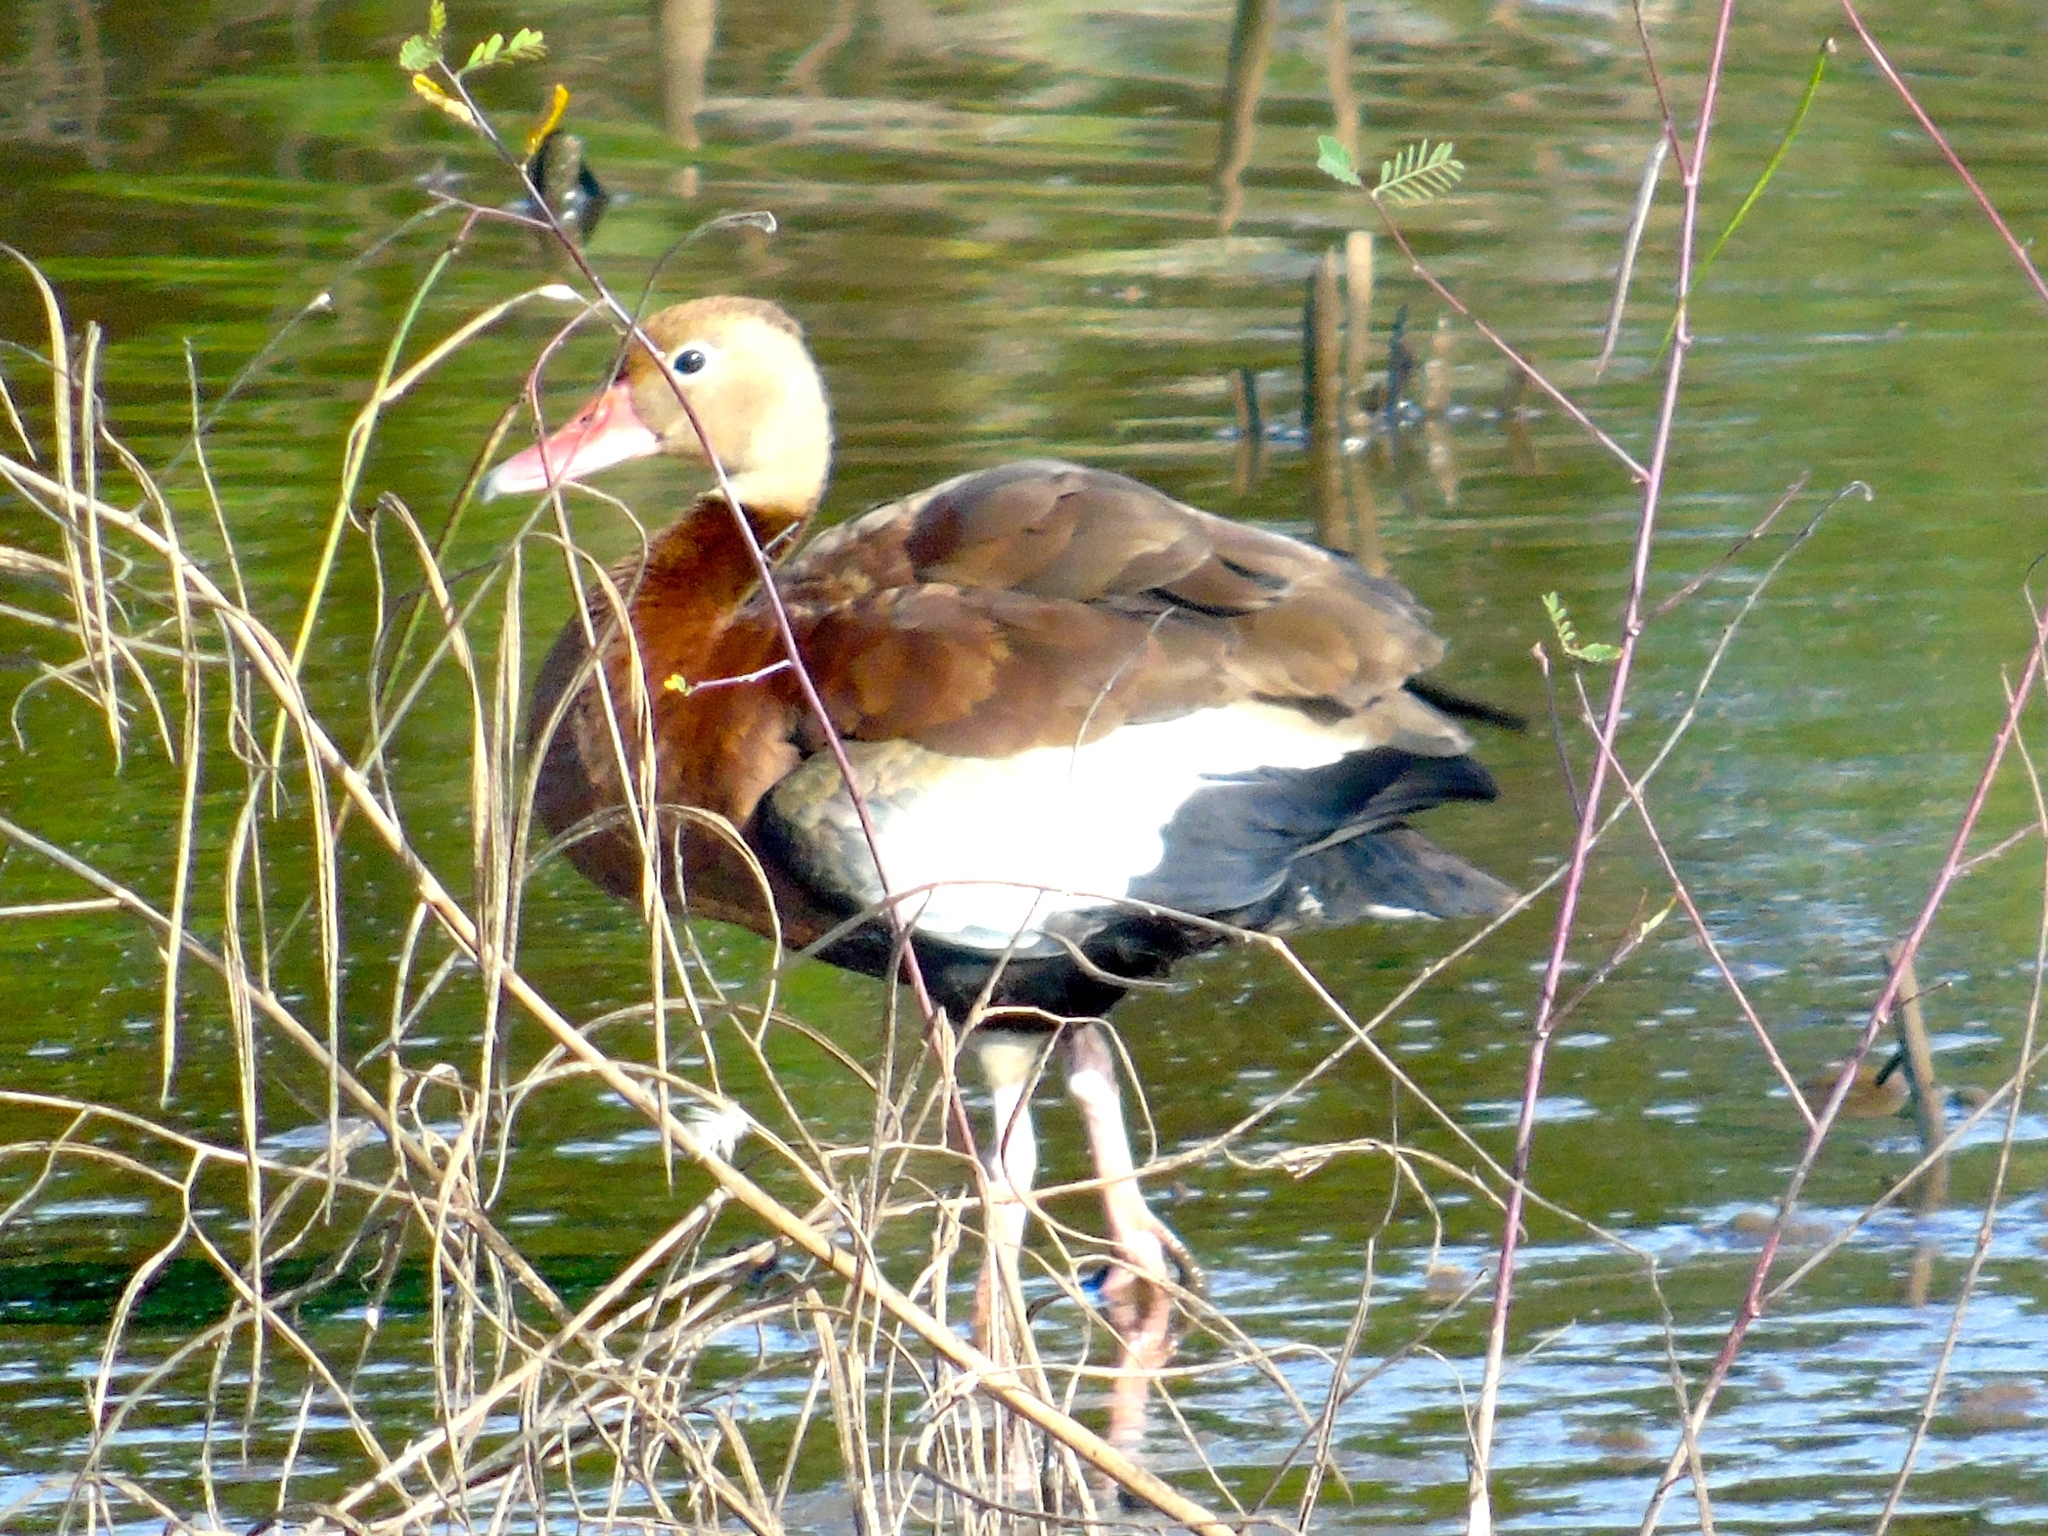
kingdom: Animalia
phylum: Chordata
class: Aves
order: Anseriformes
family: Anatidae
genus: Dendrocygna
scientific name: Dendrocygna autumnalis
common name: Black-bellied whistling duck
